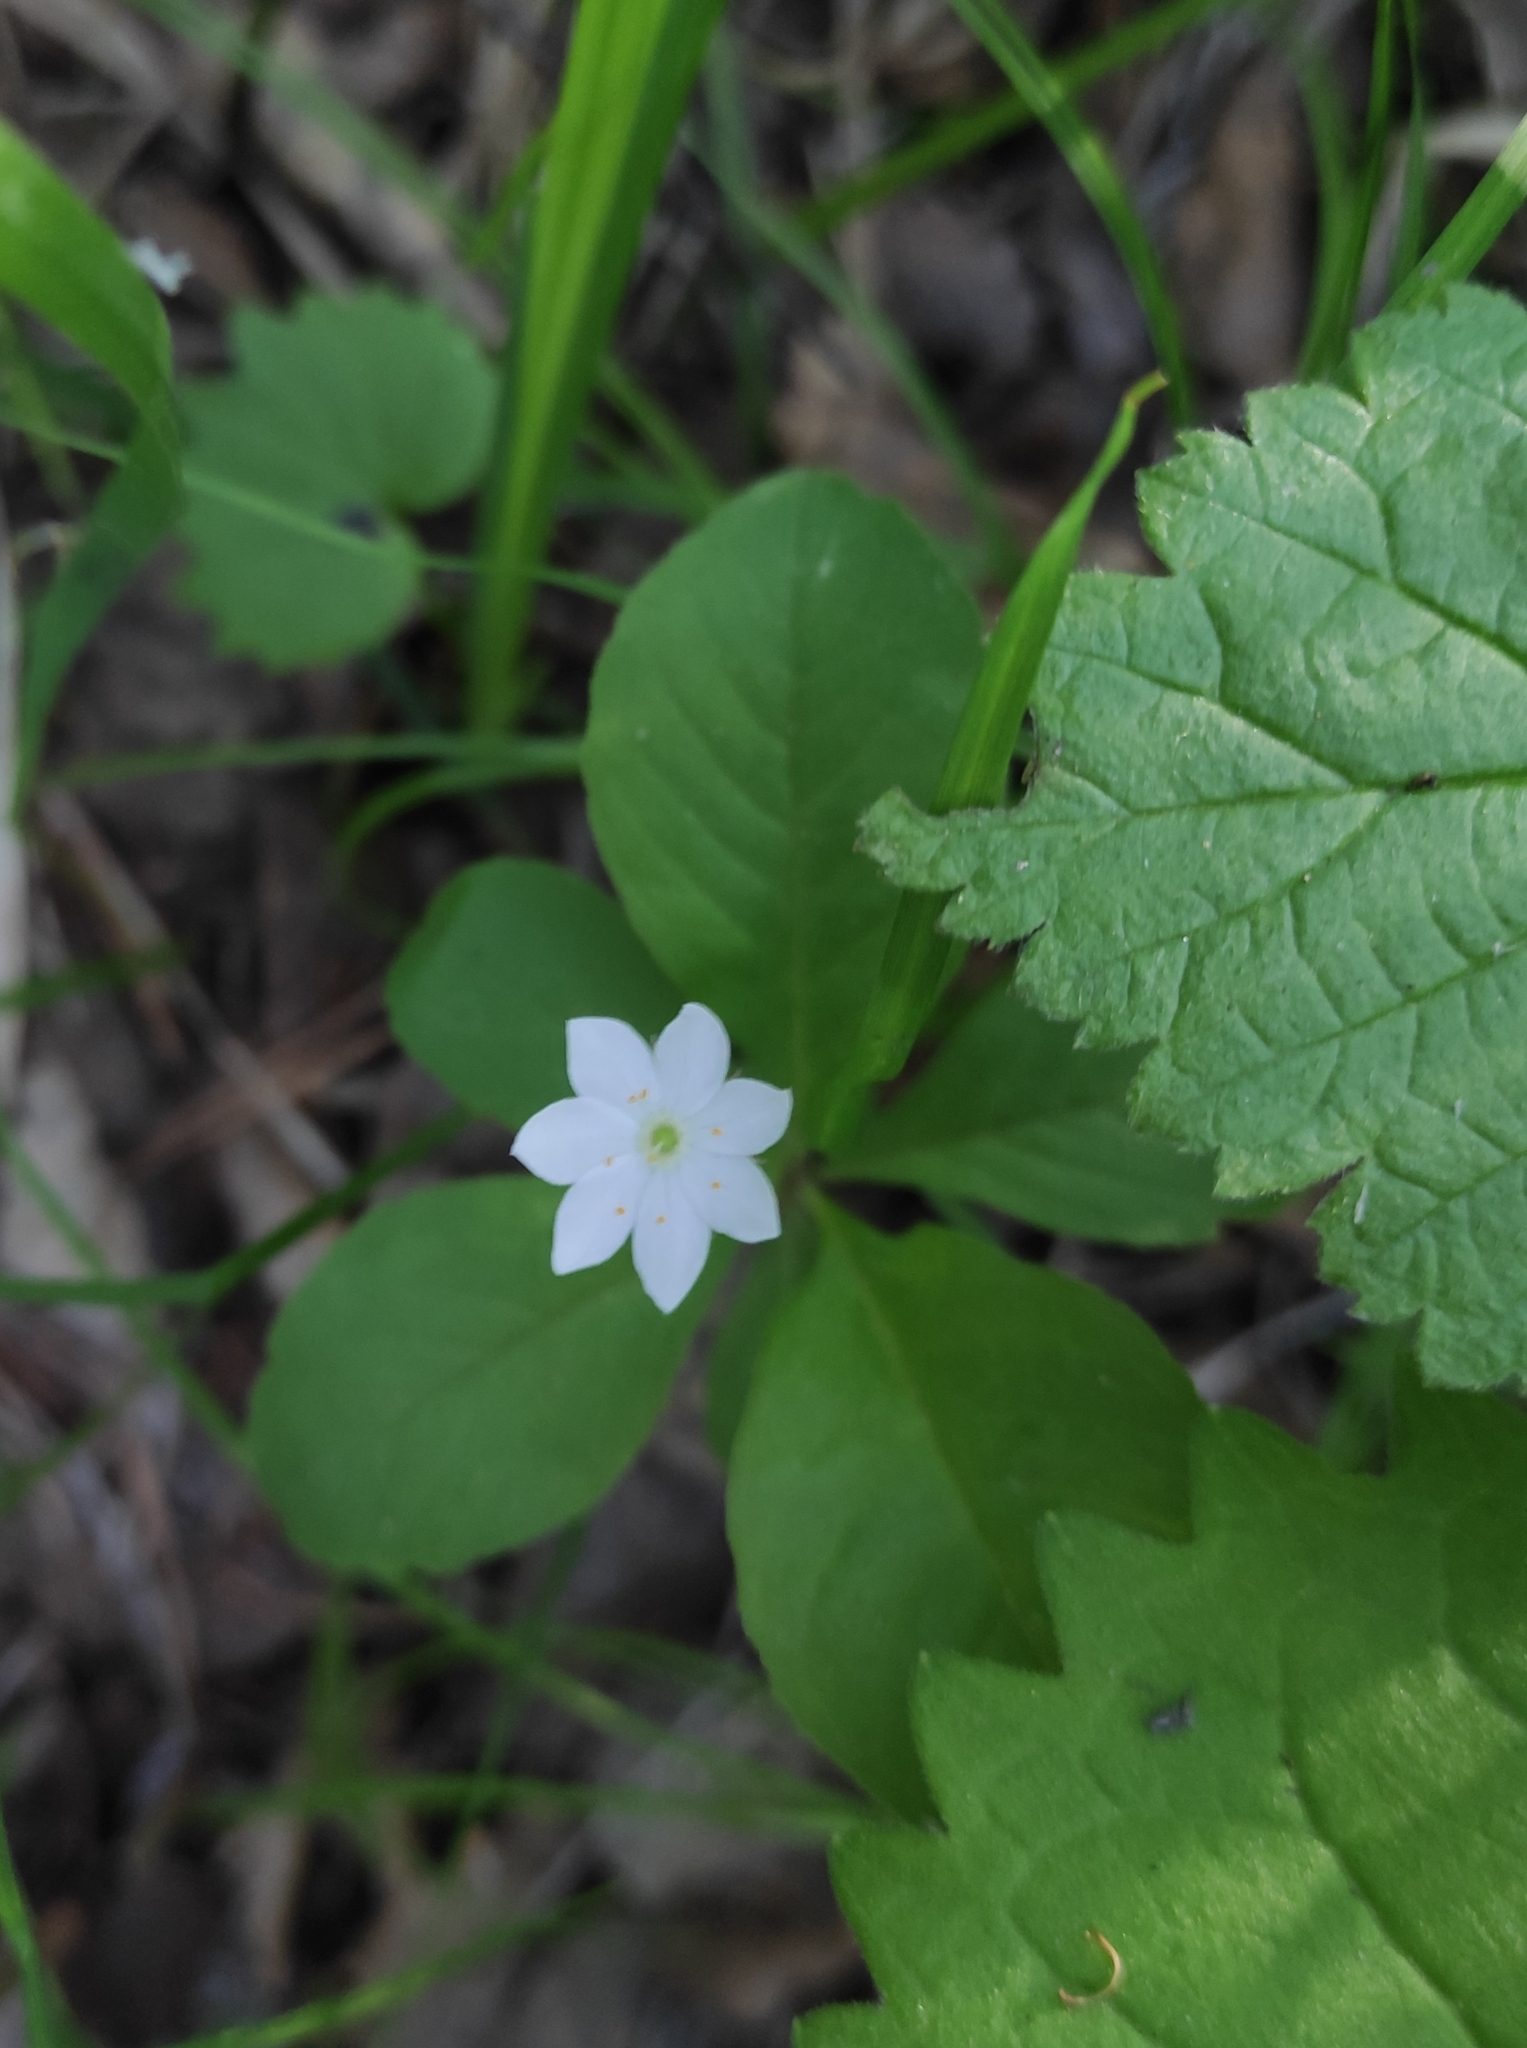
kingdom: Plantae
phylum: Tracheophyta
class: Magnoliopsida
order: Ericales
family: Primulaceae
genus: Lysimachia
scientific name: Lysimachia europaea
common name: Arctic starflower
